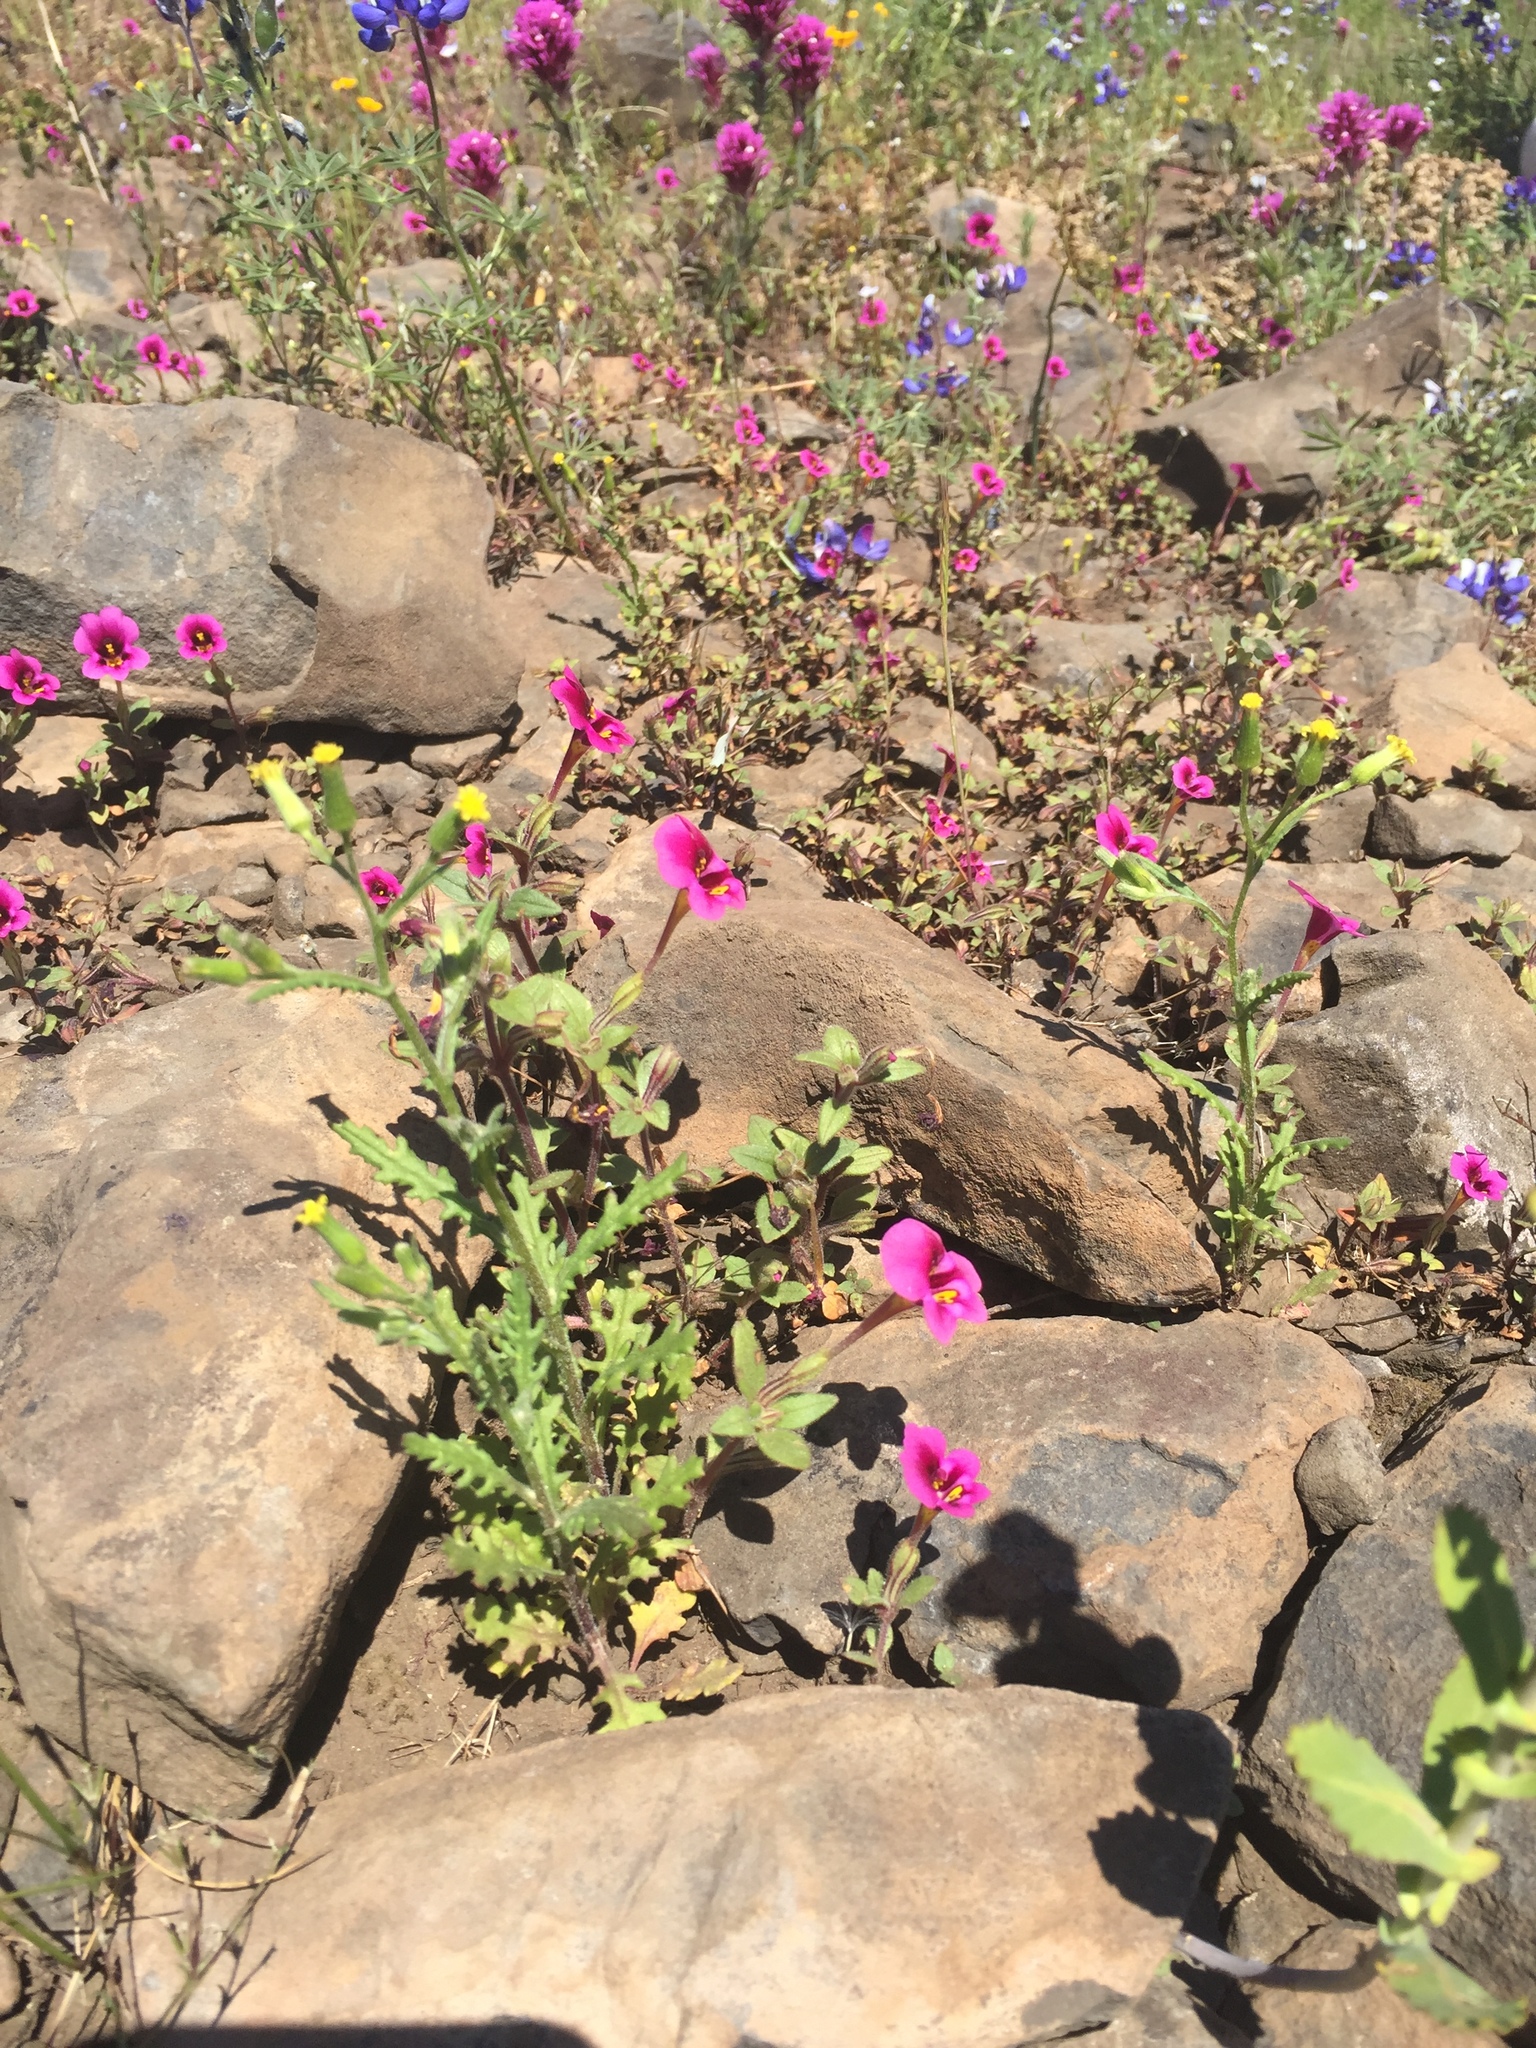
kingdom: Plantae
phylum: Tracheophyta
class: Magnoliopsida
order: Lamiales
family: Phrymaceae
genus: Diplacus
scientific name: Diplacus kelloggii
